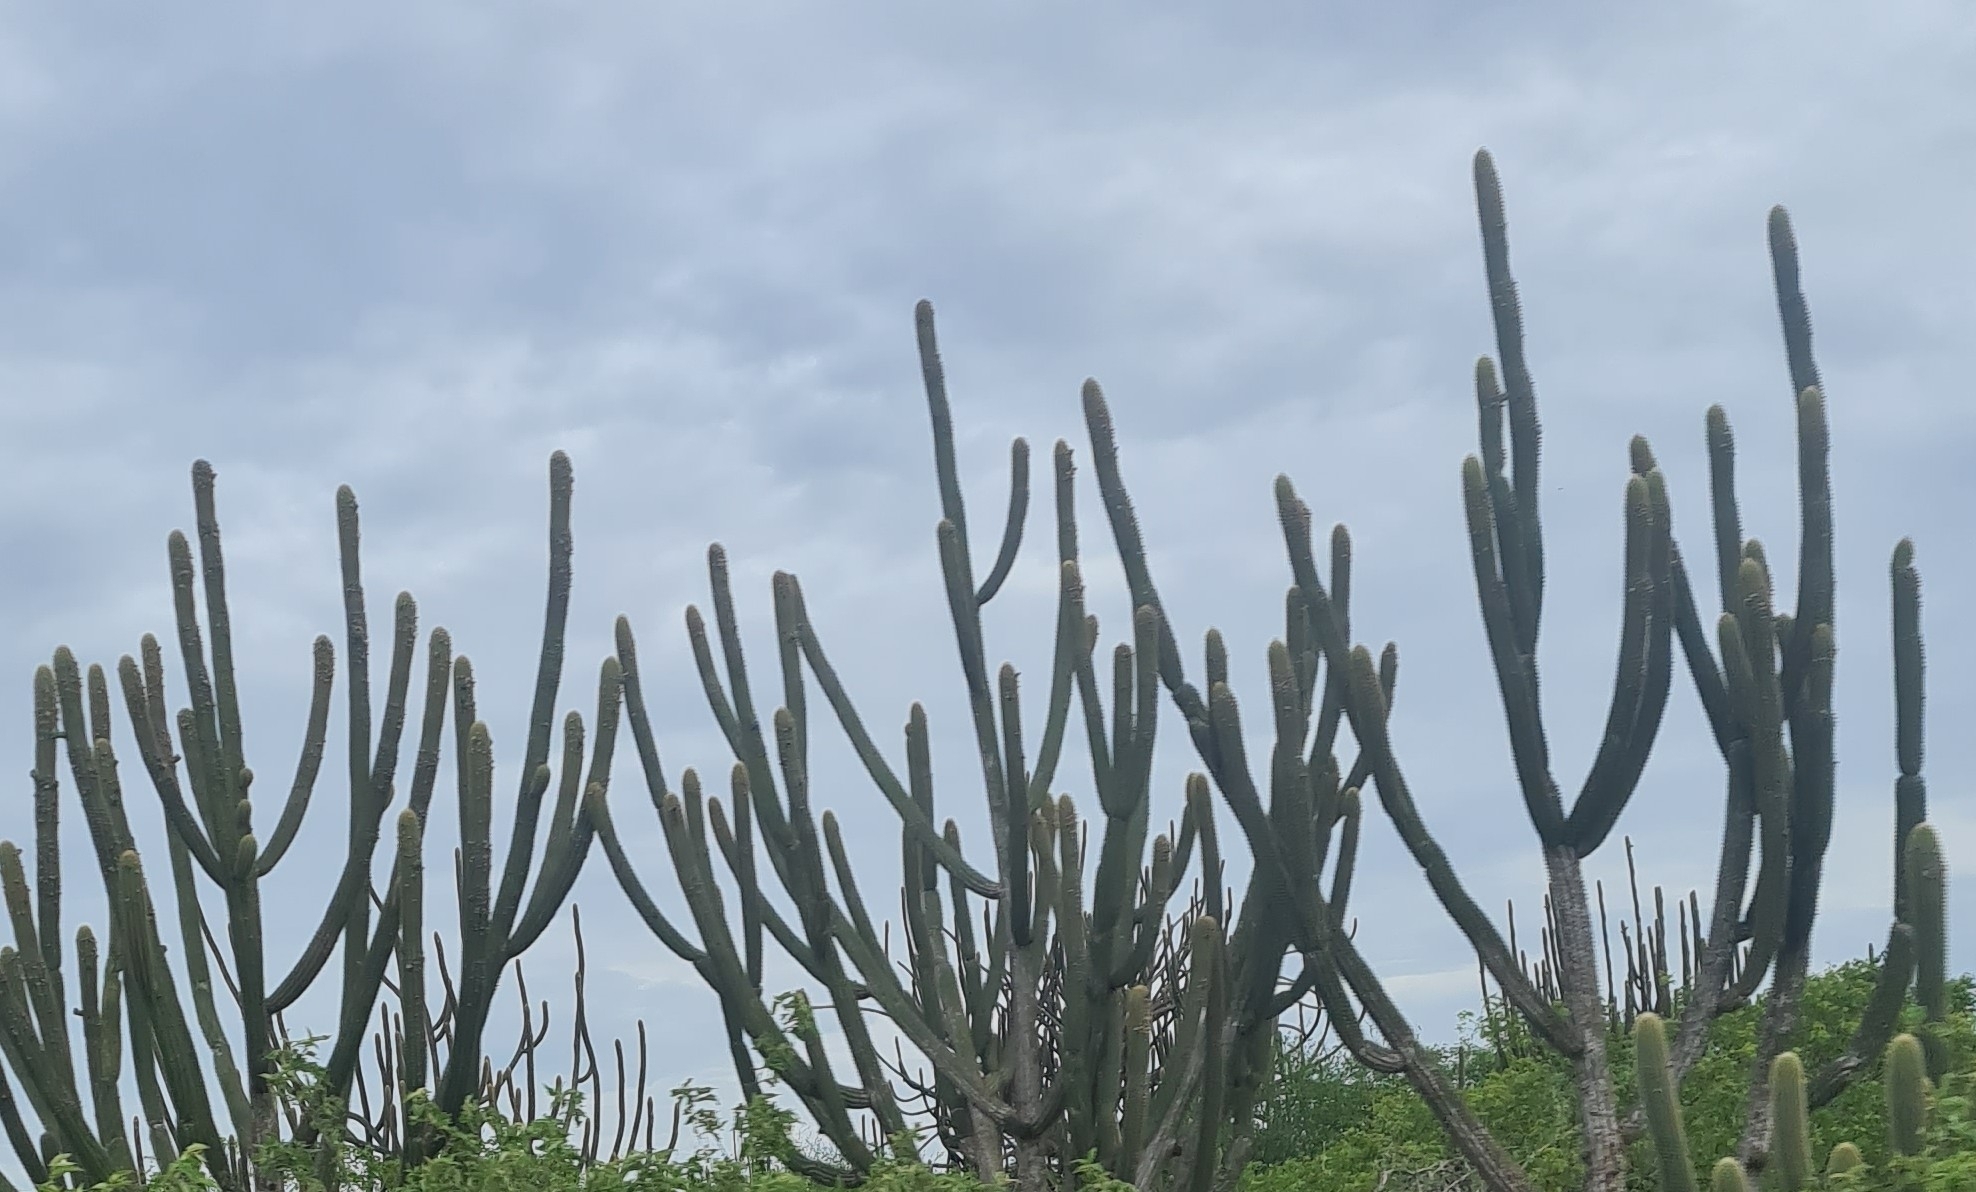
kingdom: Plantae
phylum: Tracheophyta
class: Magnoliopsida
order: Caryophyllales
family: Cactaceae
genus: Pilosocereus
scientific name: Pilosocereus pachycladus
